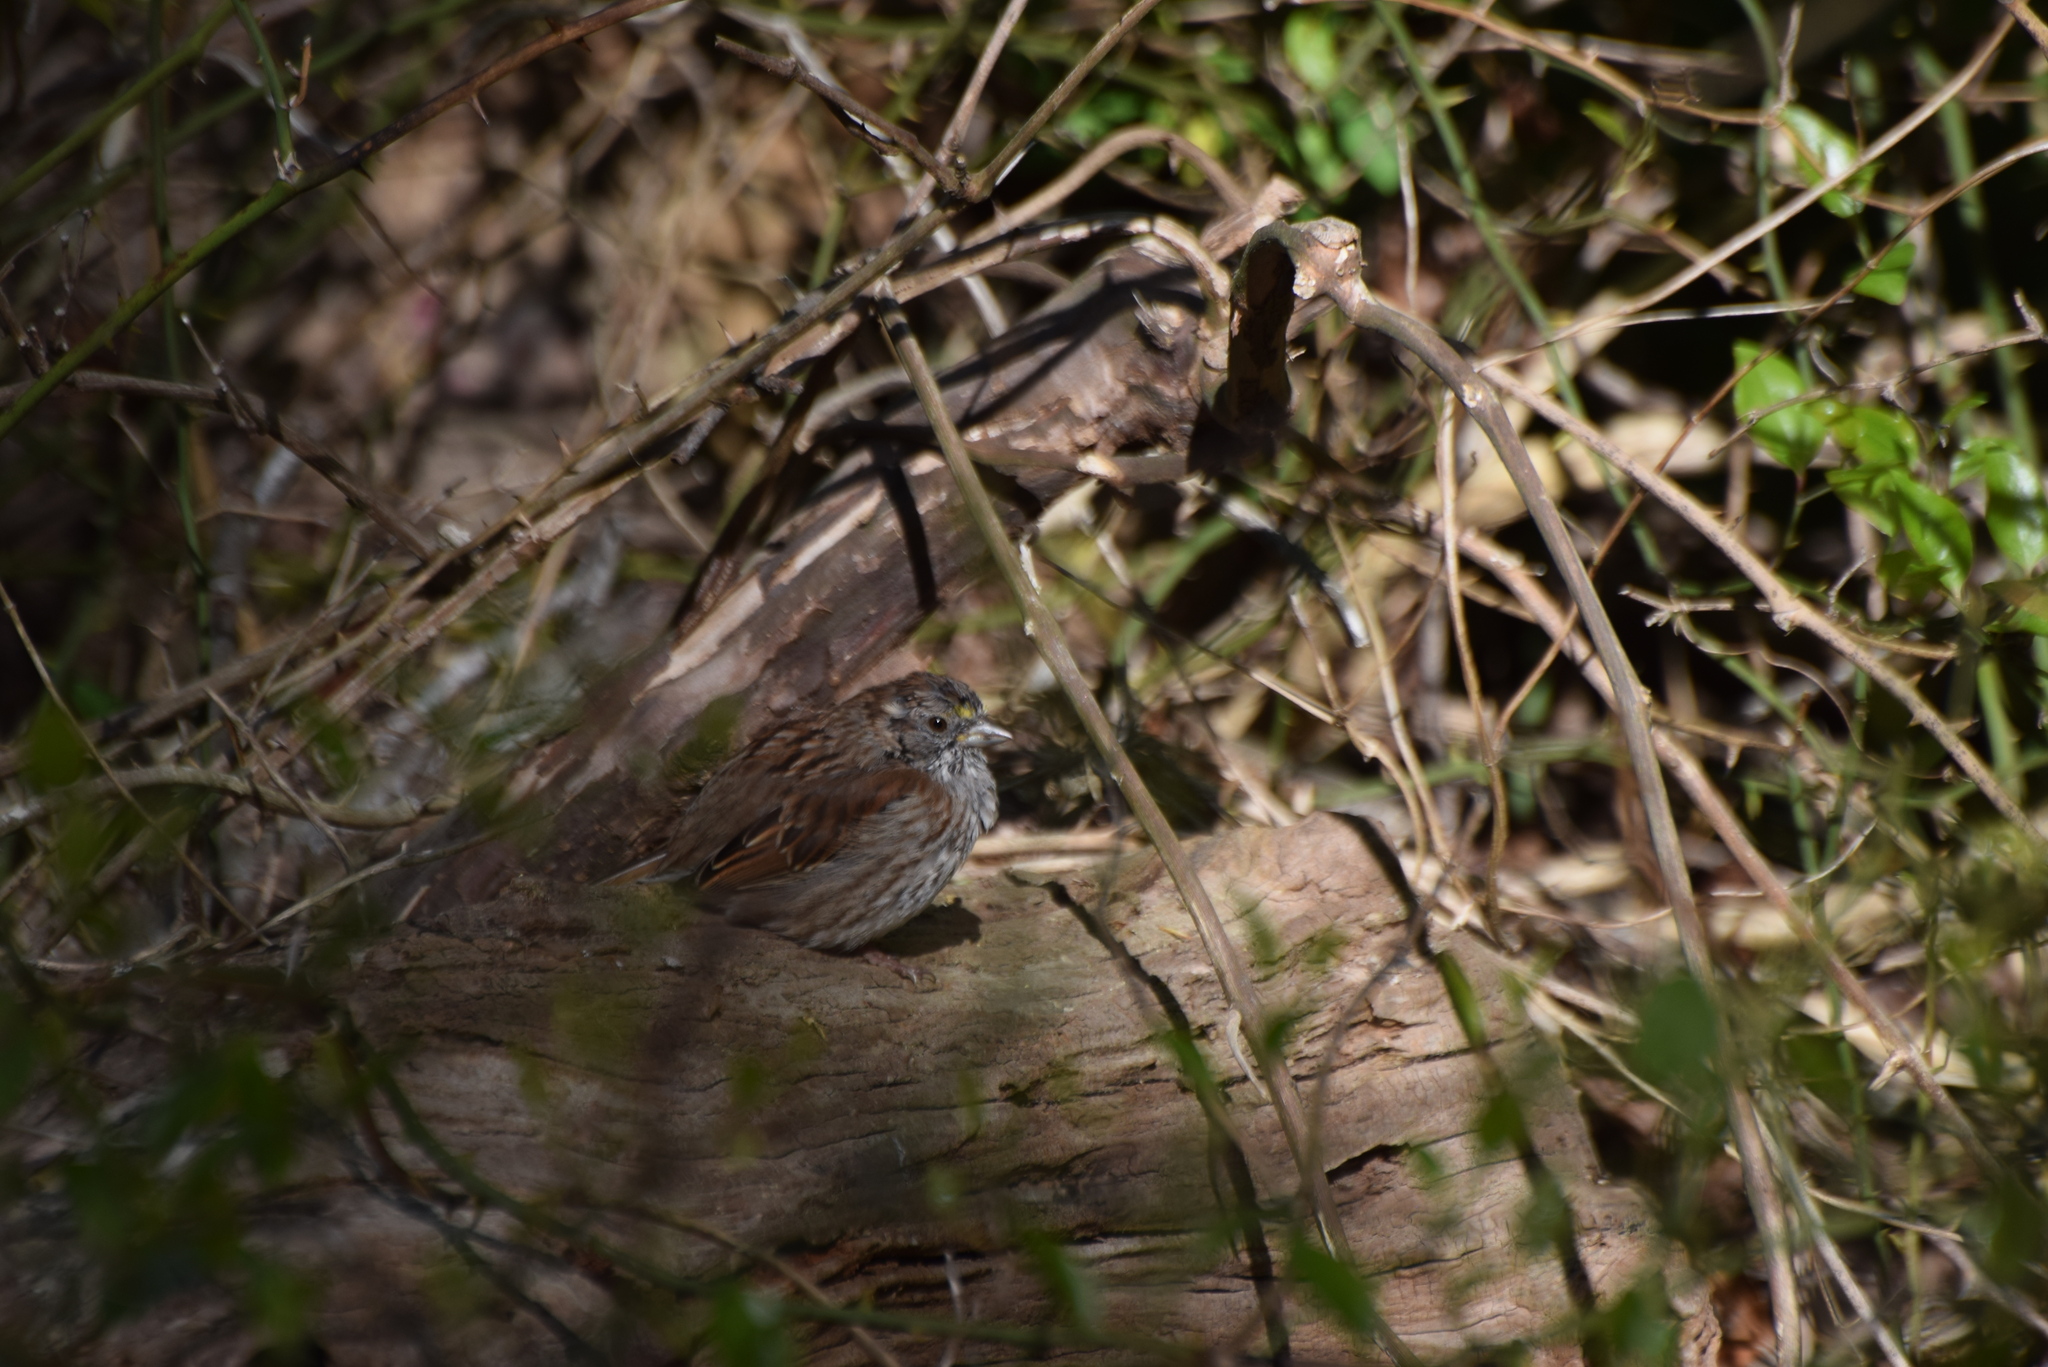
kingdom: Animalia
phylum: Chordata
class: Aves
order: Passeriformes
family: Passerellidae
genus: Zonotrichia
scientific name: Zonotrichia albicollis
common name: White-throated sparrow
